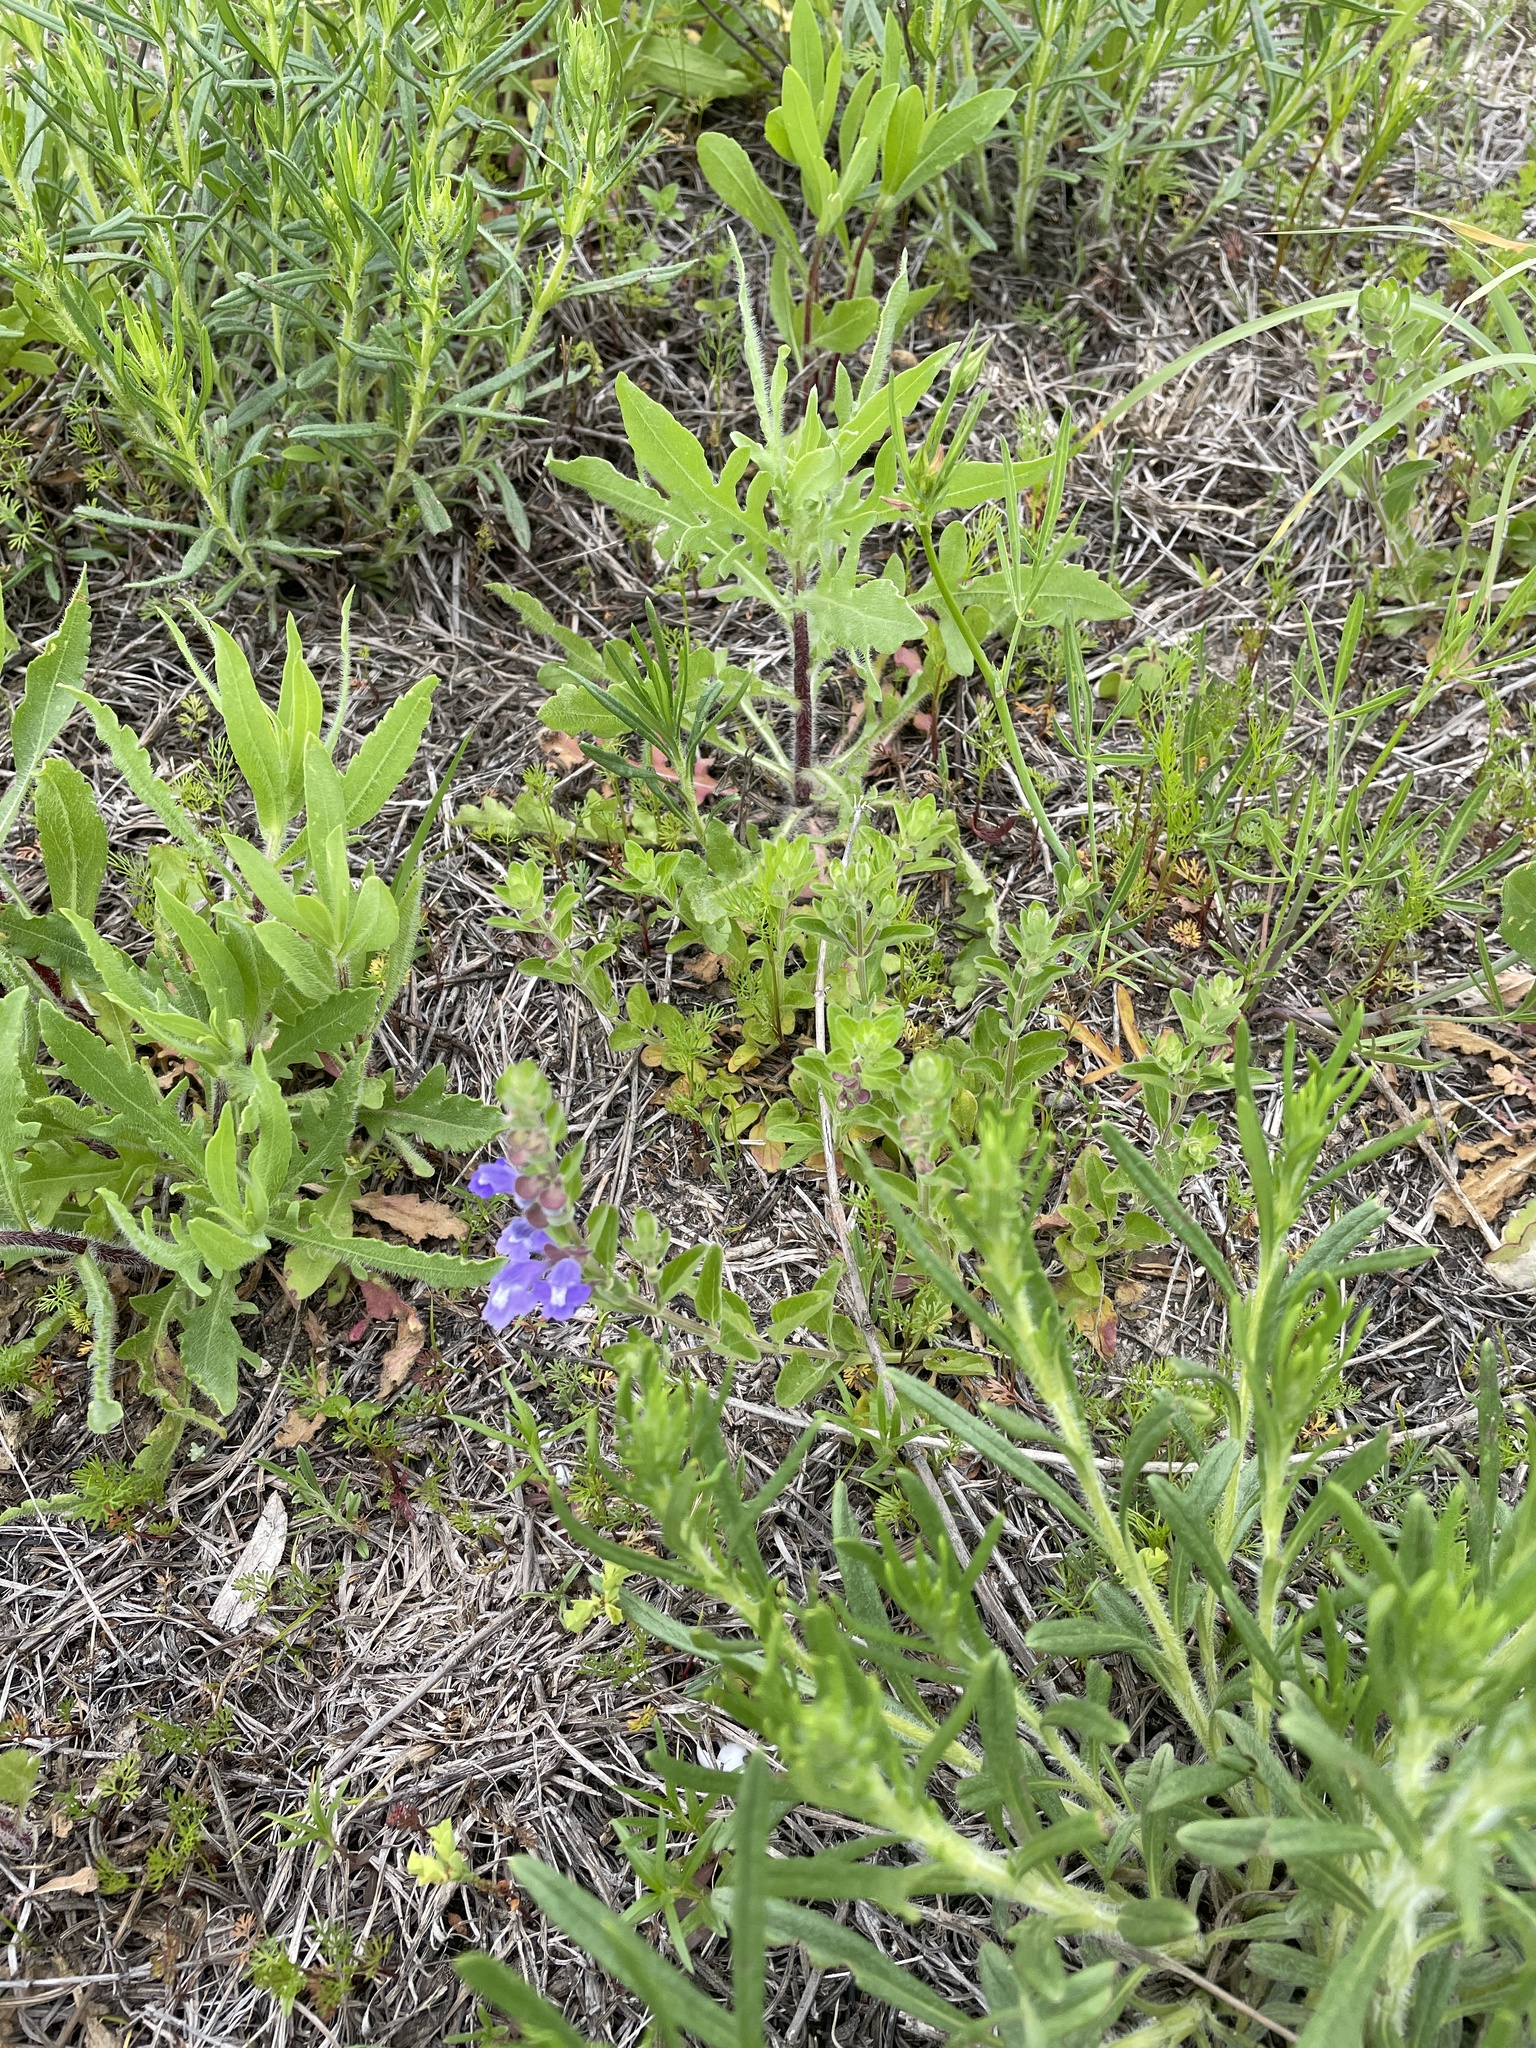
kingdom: Plantae
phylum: Tracheophyta
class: Magnoliopsida
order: Lamiales
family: Lamiaceae
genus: Scutellaria
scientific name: Scutellaria drummondii
